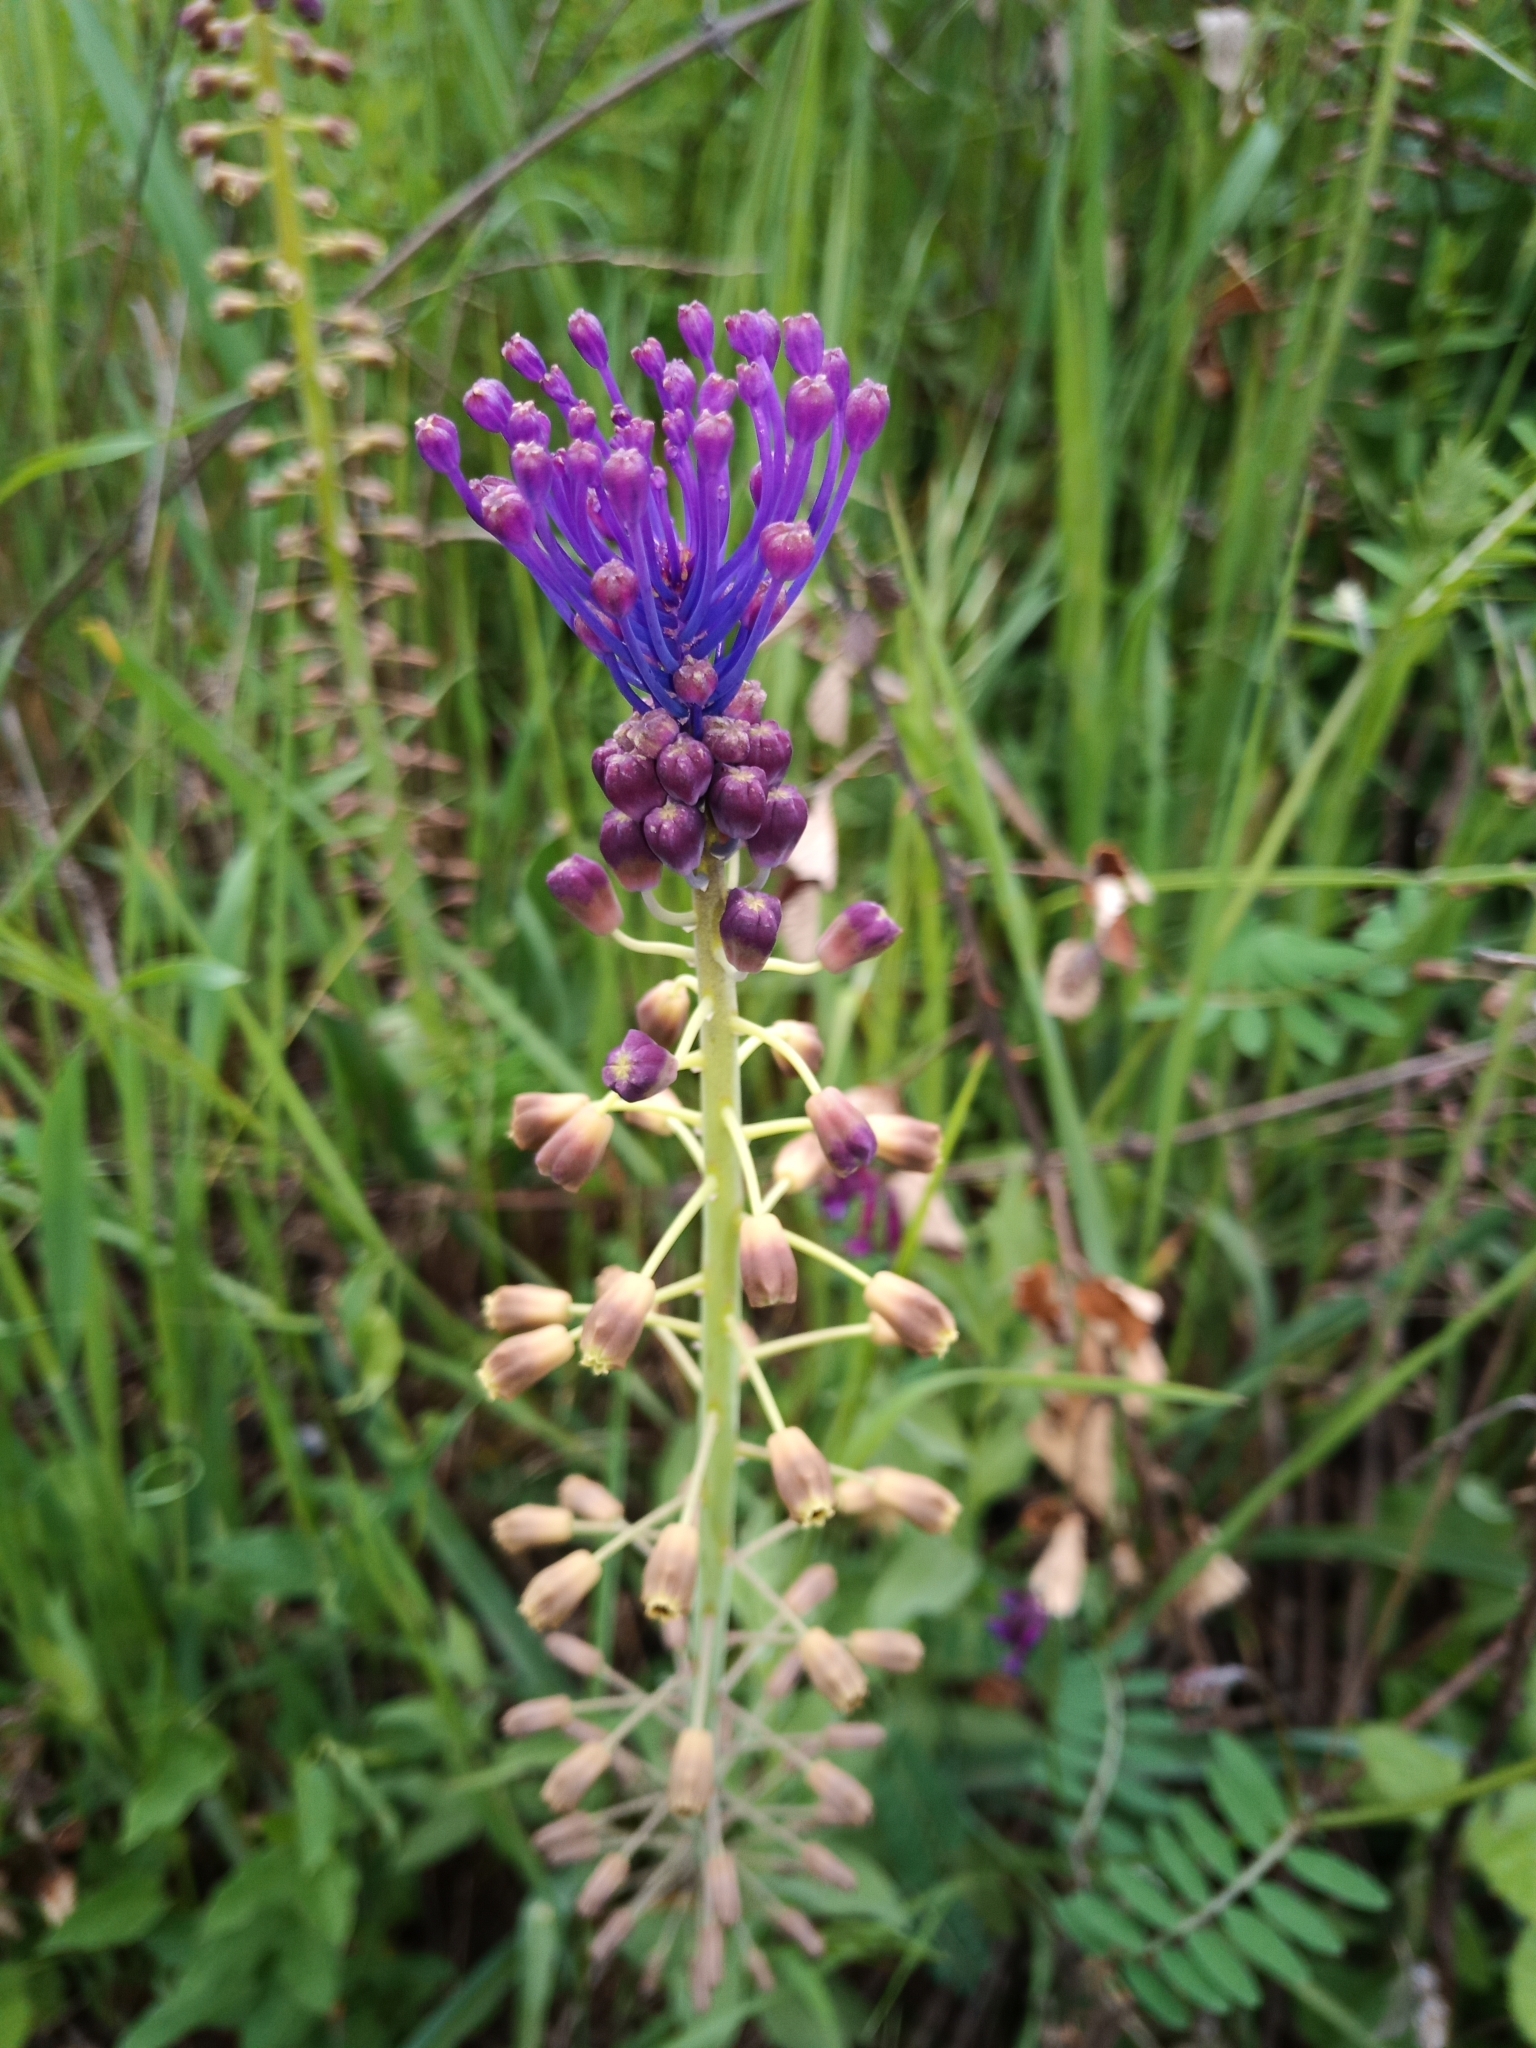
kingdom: Plantae
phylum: Tracheophyta
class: Liliopsida
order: Asparagales
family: Asparagaceae
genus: Muscari
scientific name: Muscari comosum
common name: Tassel hyacinth
